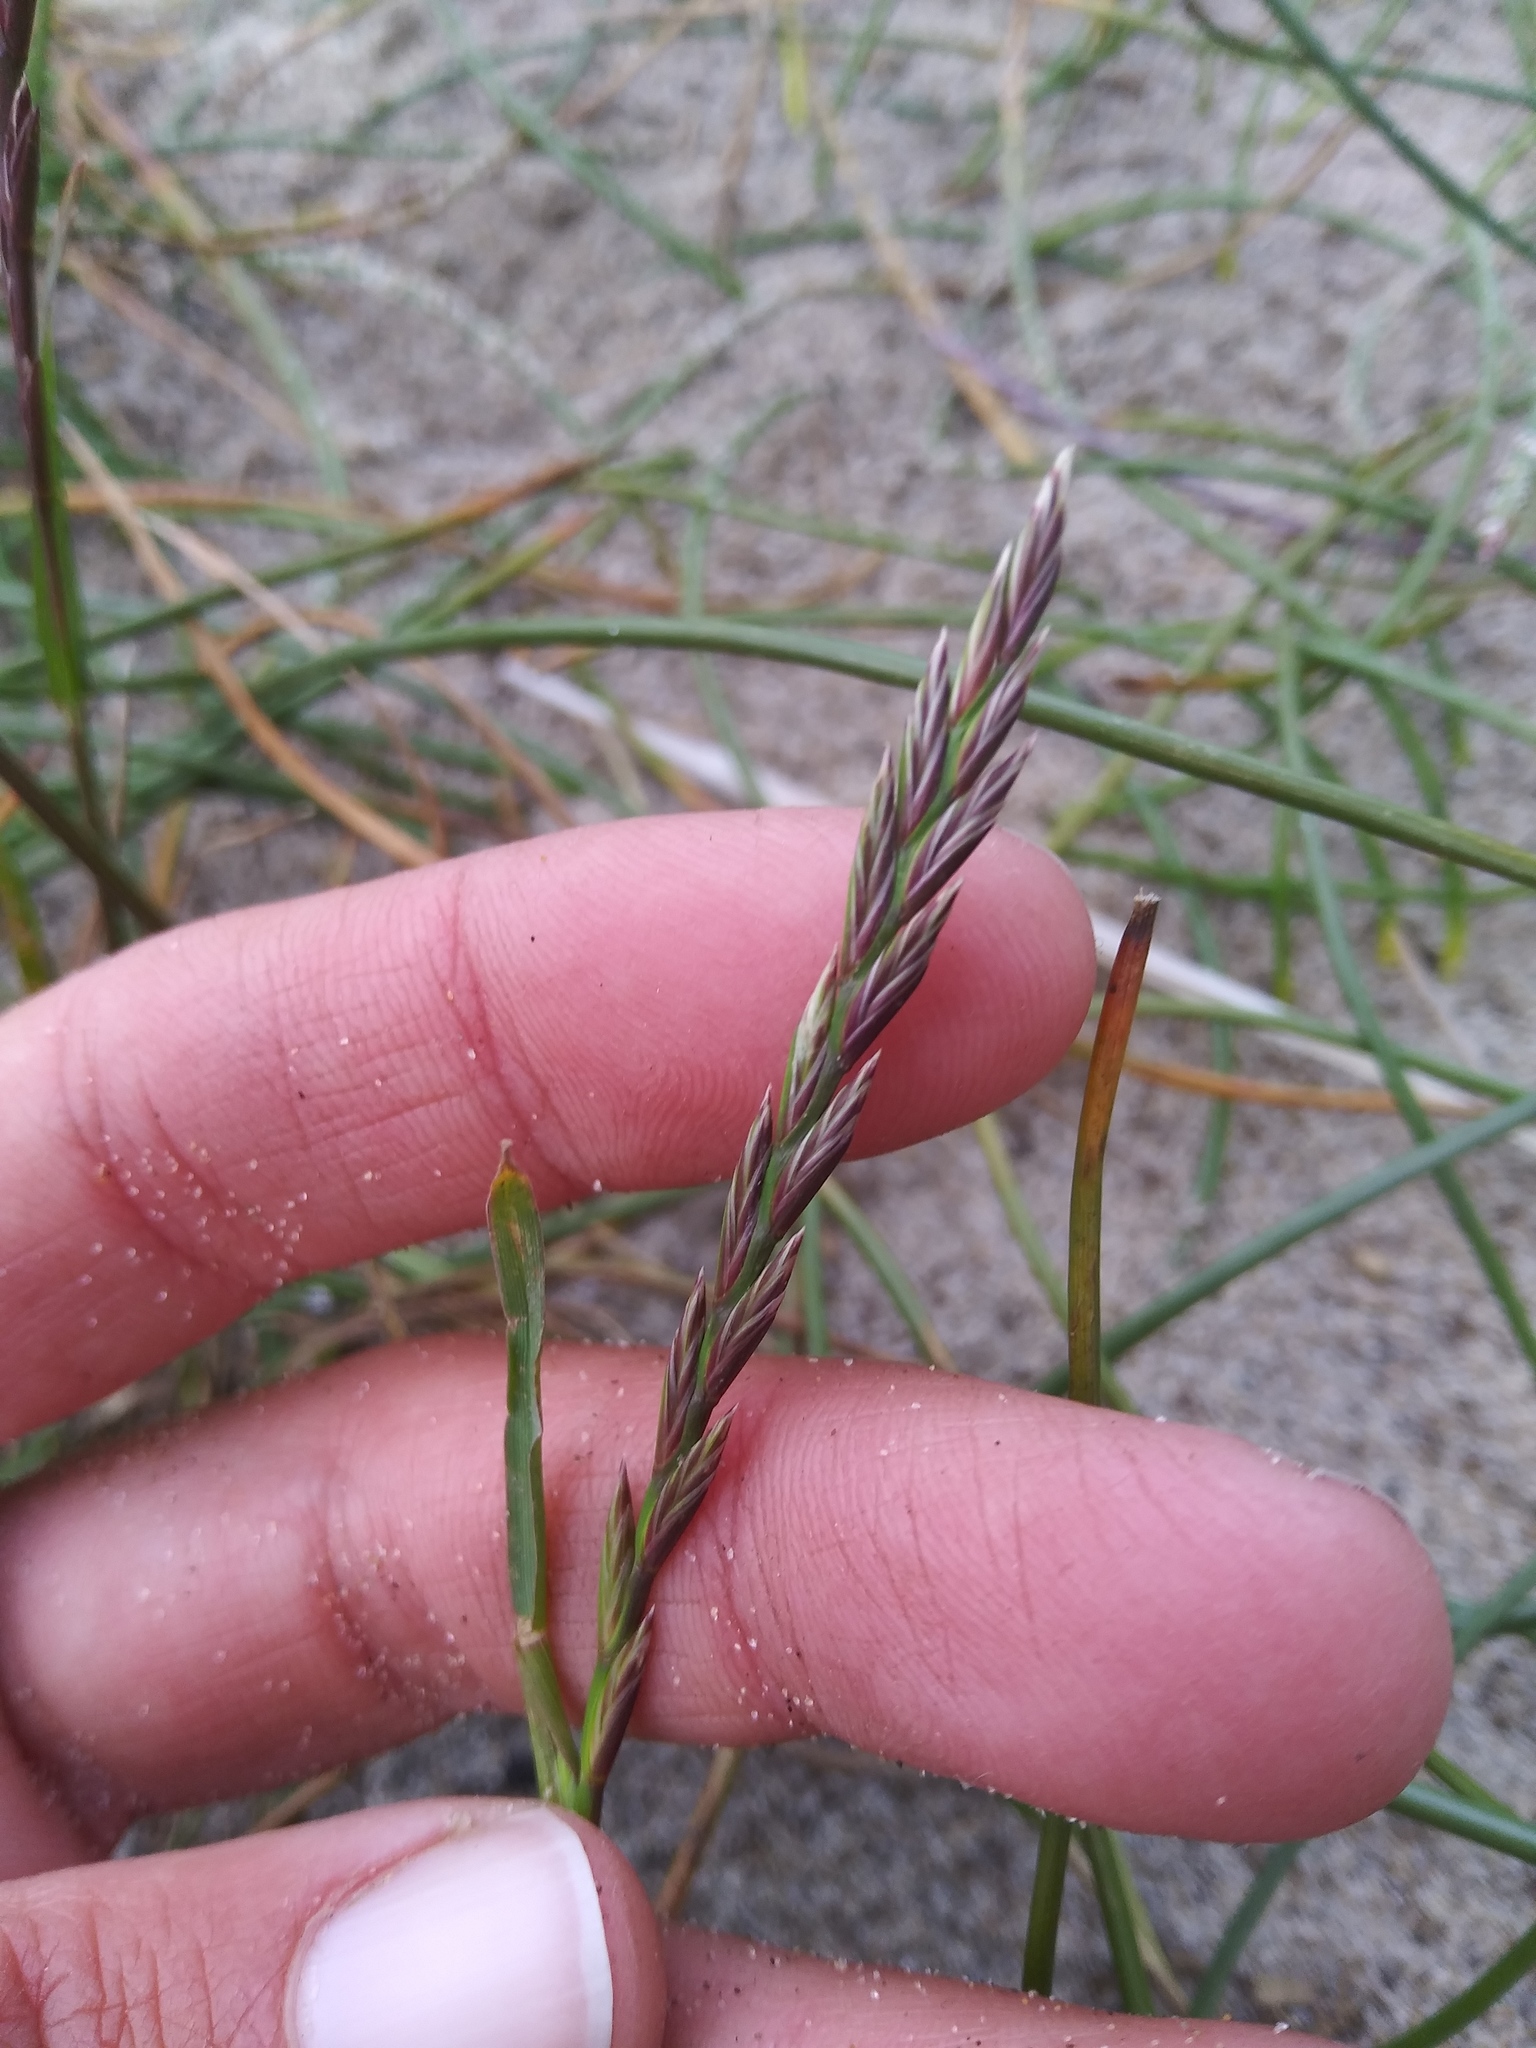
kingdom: Plantae
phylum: Tracheophyta
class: Liliopsida
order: Poales
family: Poaceae
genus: Lolium
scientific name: Lolium perenne
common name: Perennial ryegrass
